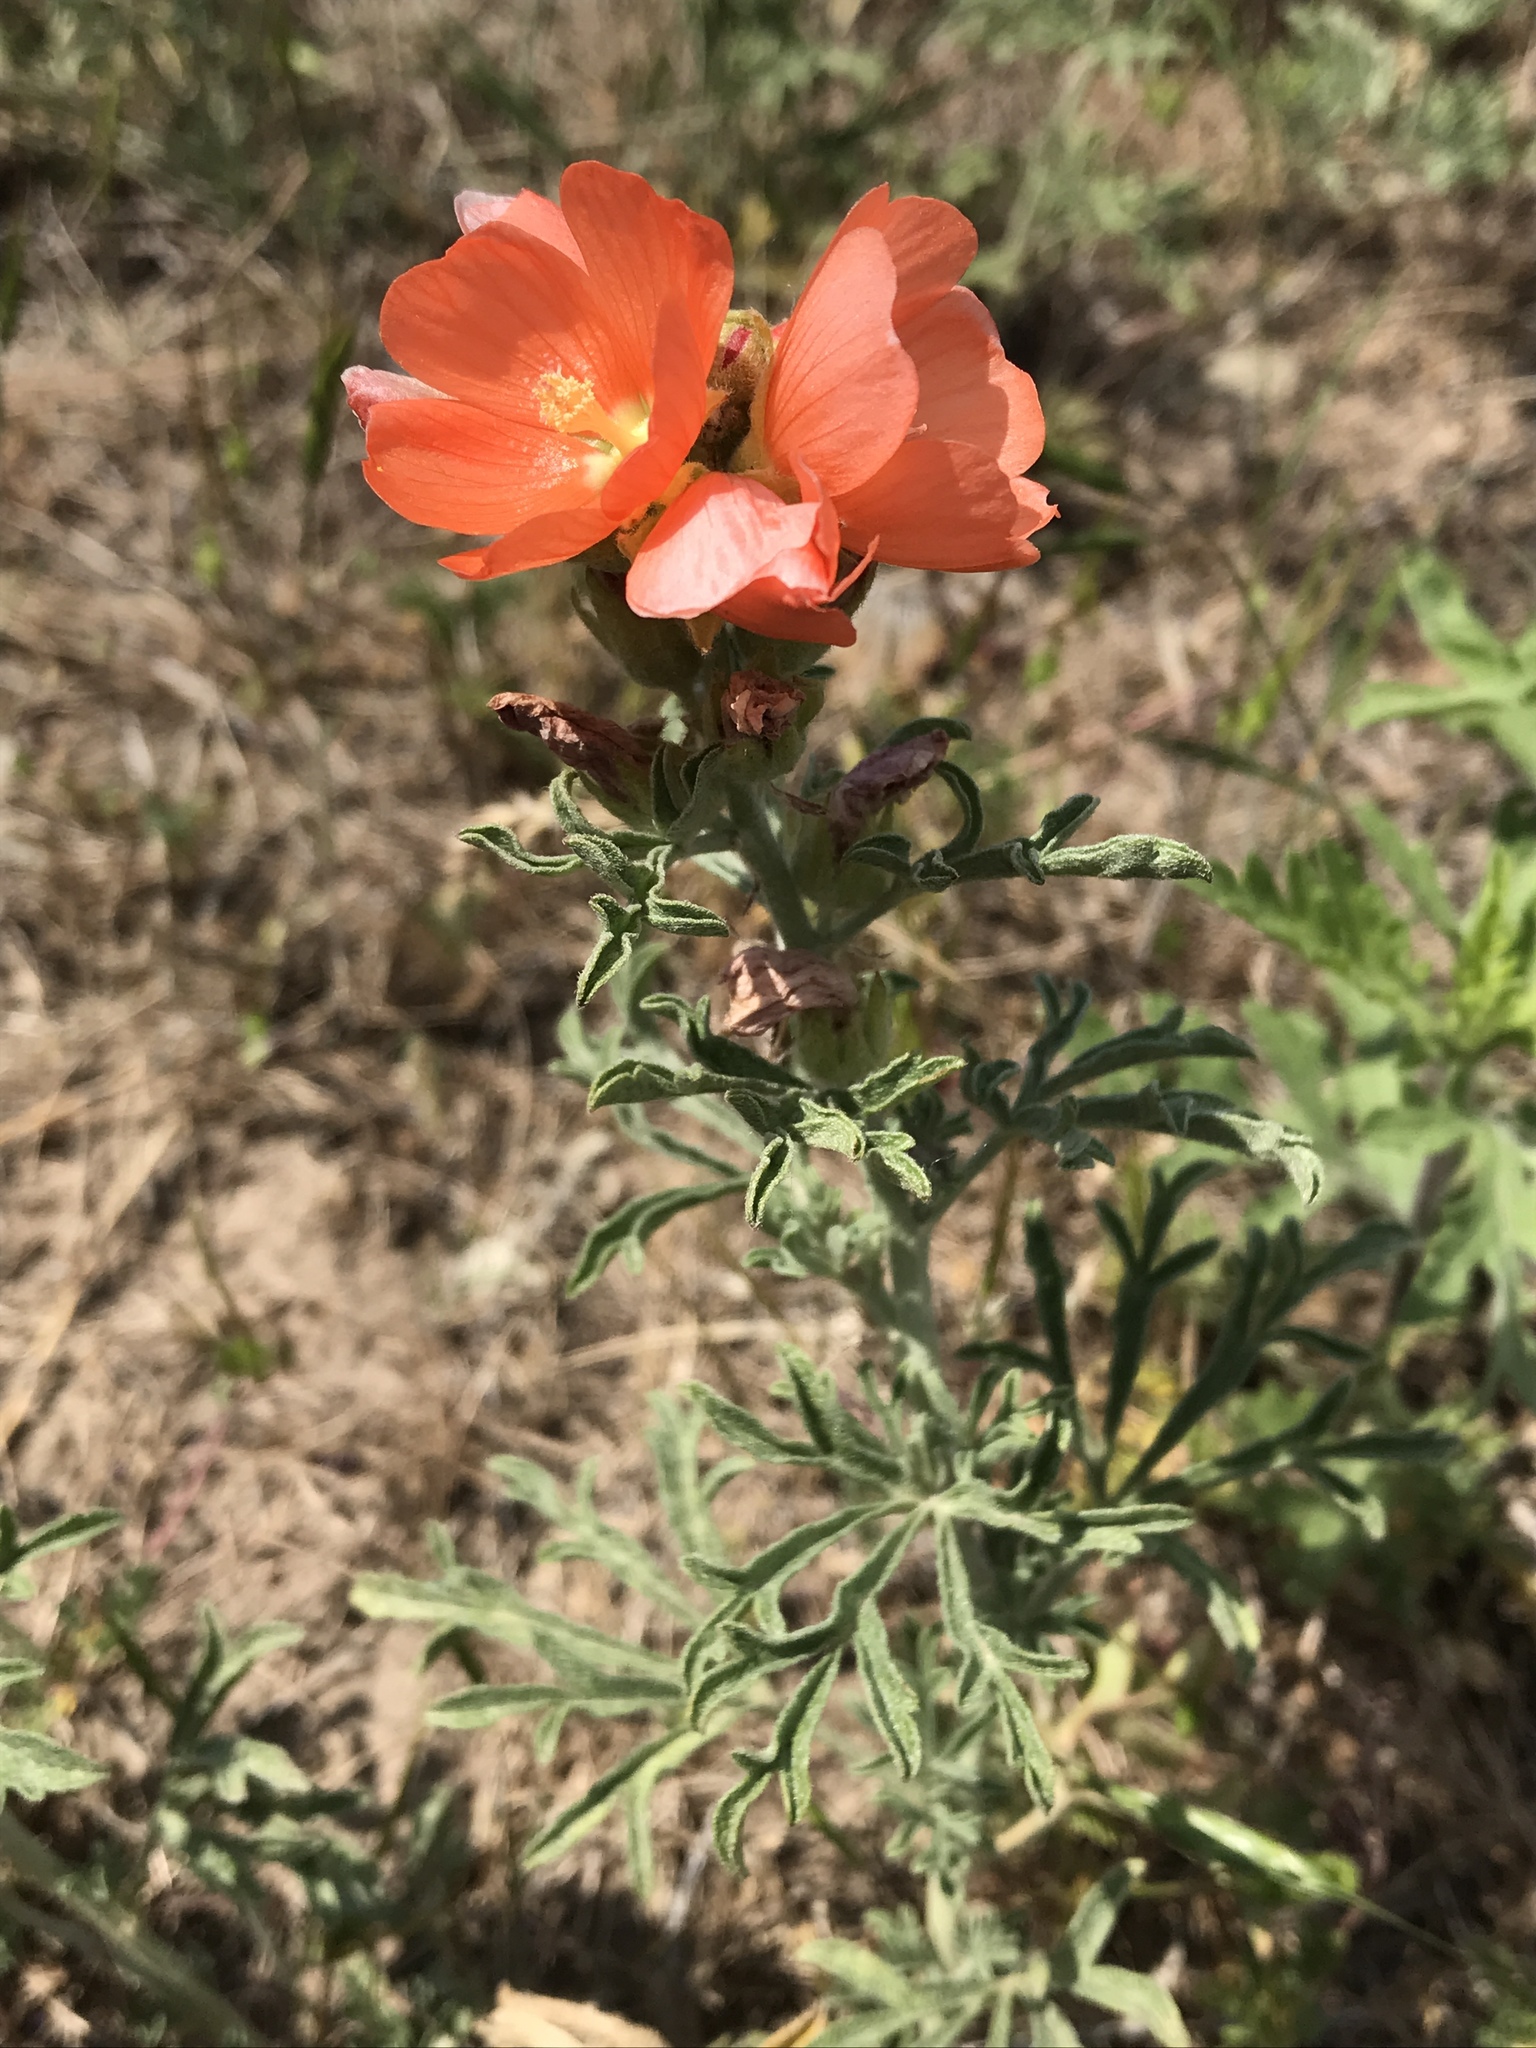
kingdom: Plantae
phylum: Tracheophyta
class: Magnoliopsida
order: Malvales
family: Malvaceae
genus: Sphaeralcea
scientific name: Sphaeralcea coccinea
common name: Moss-rose
